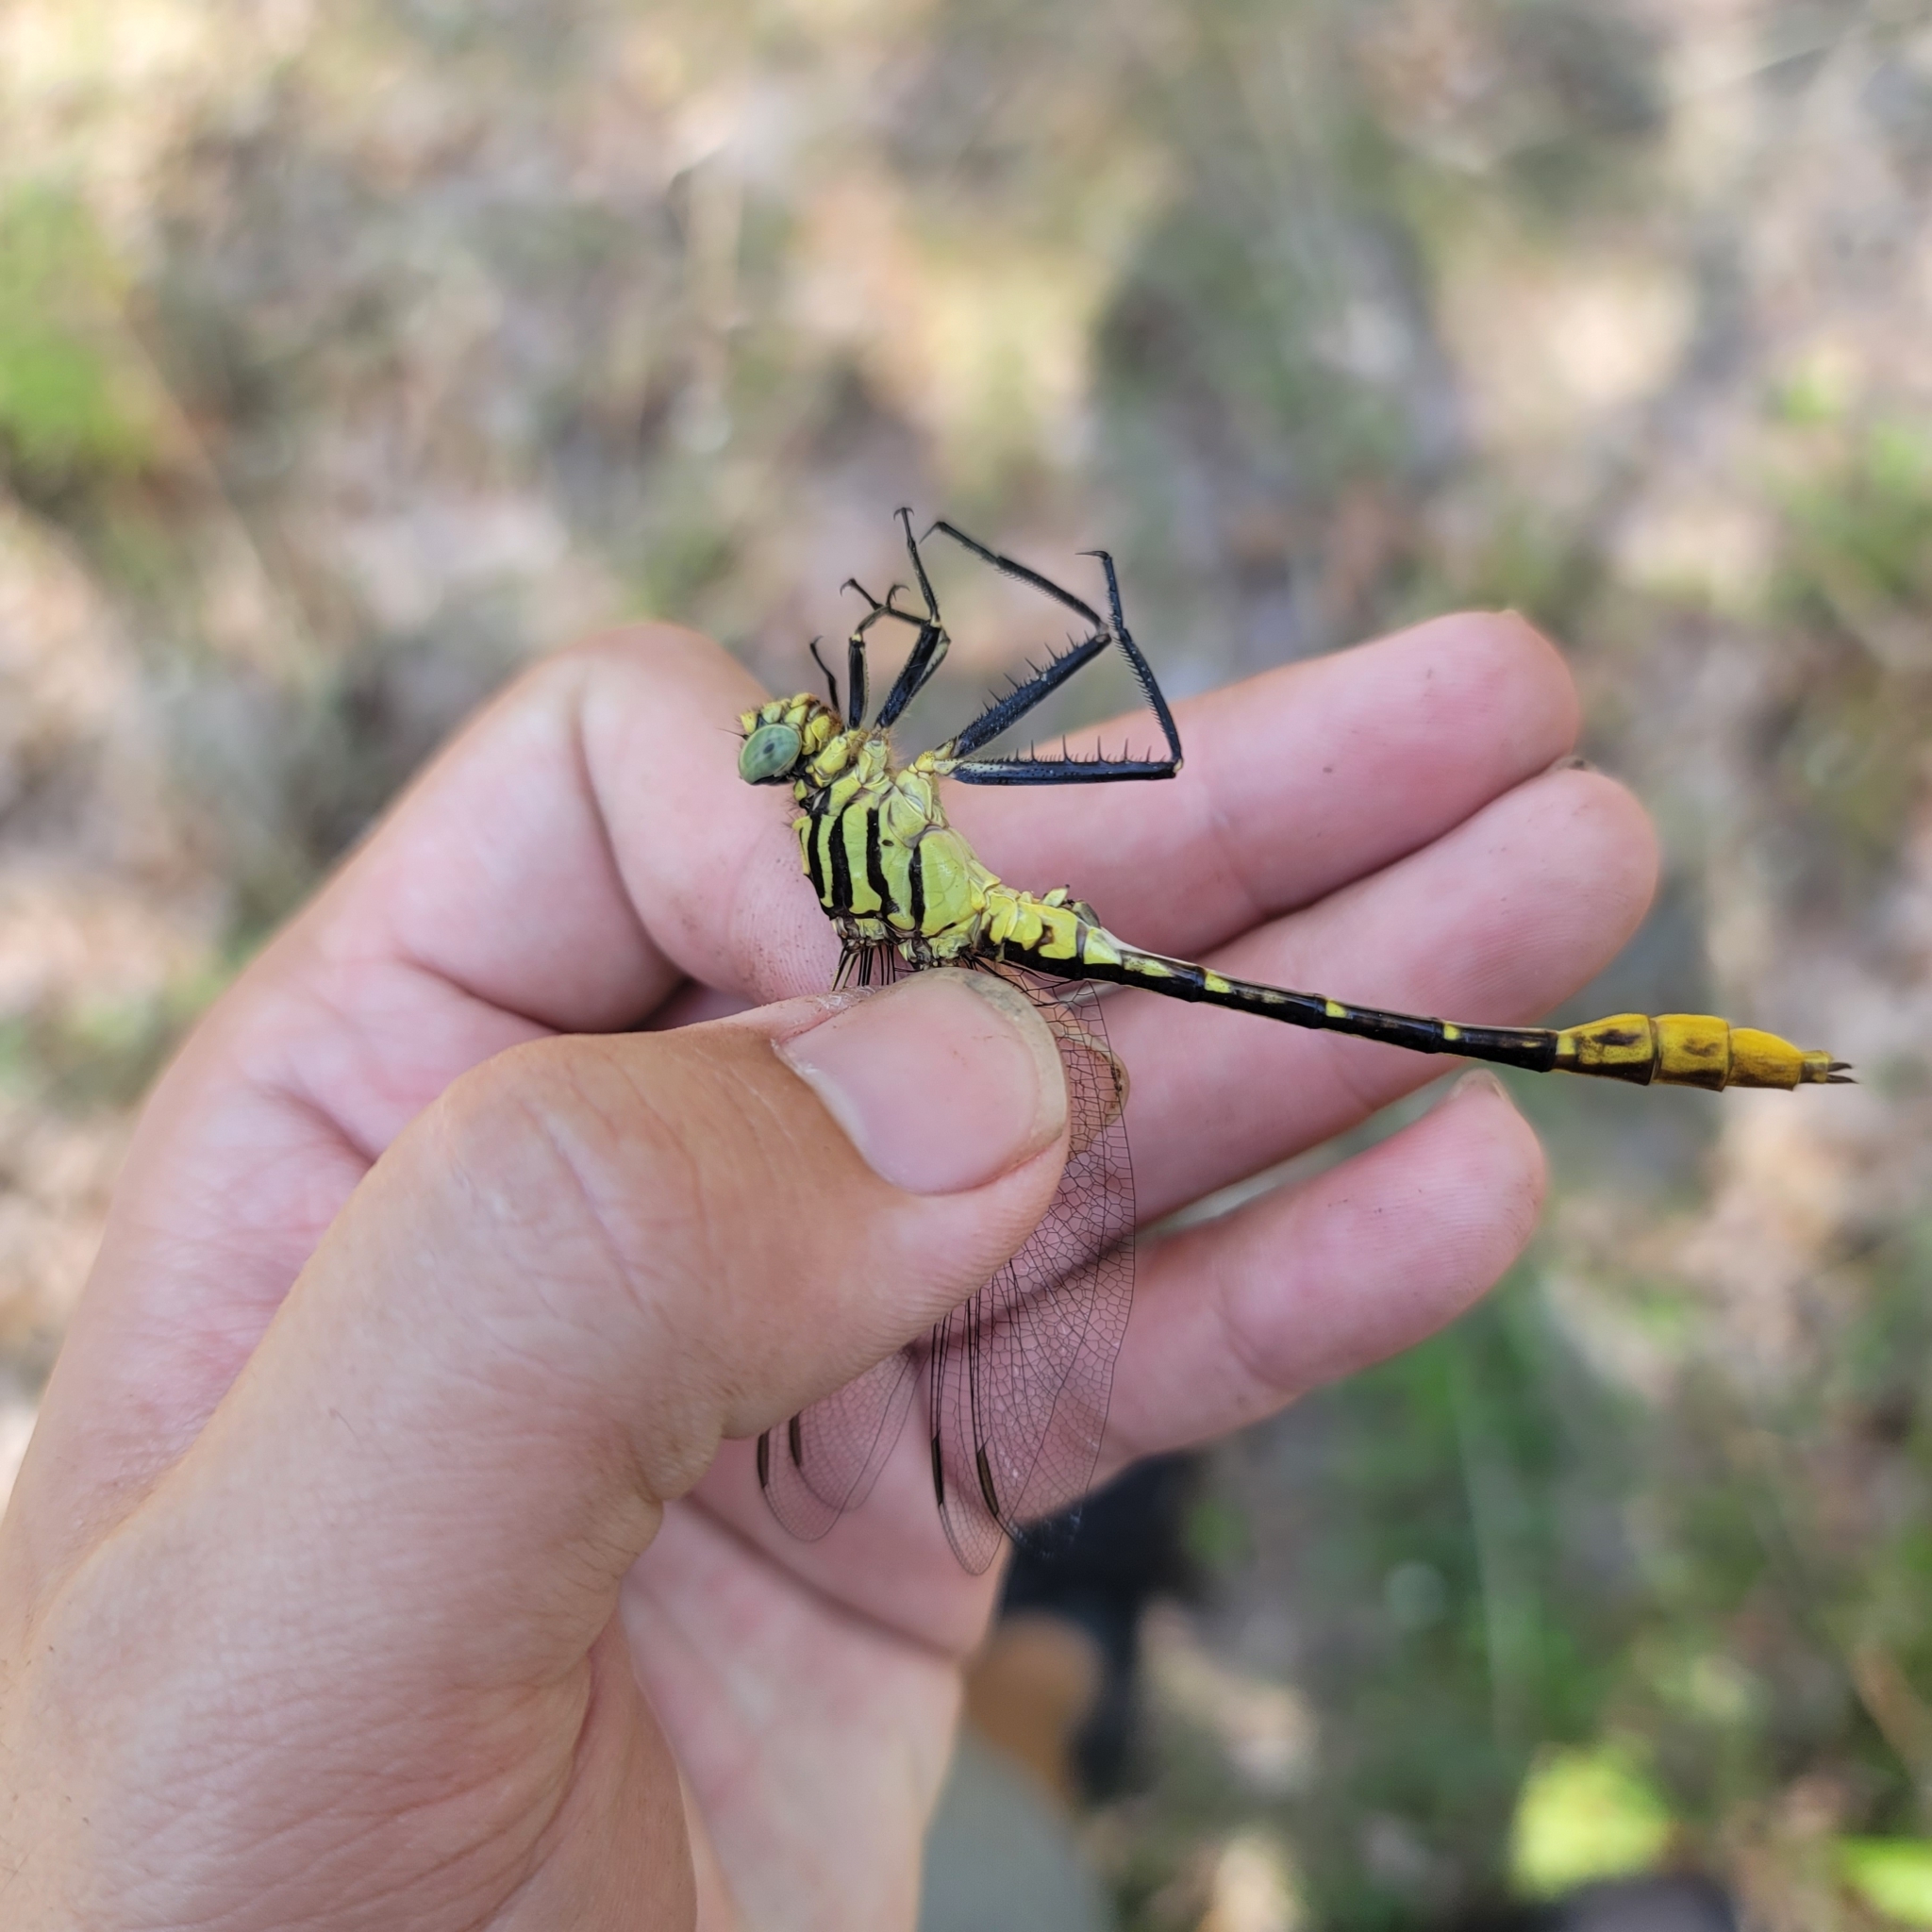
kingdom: Animalia
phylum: Arthropoda
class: Insecta
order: Odonata
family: Gomphidae
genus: Dromogomphus
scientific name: Dromogomphus armatus
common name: Southeastern spinyleg
